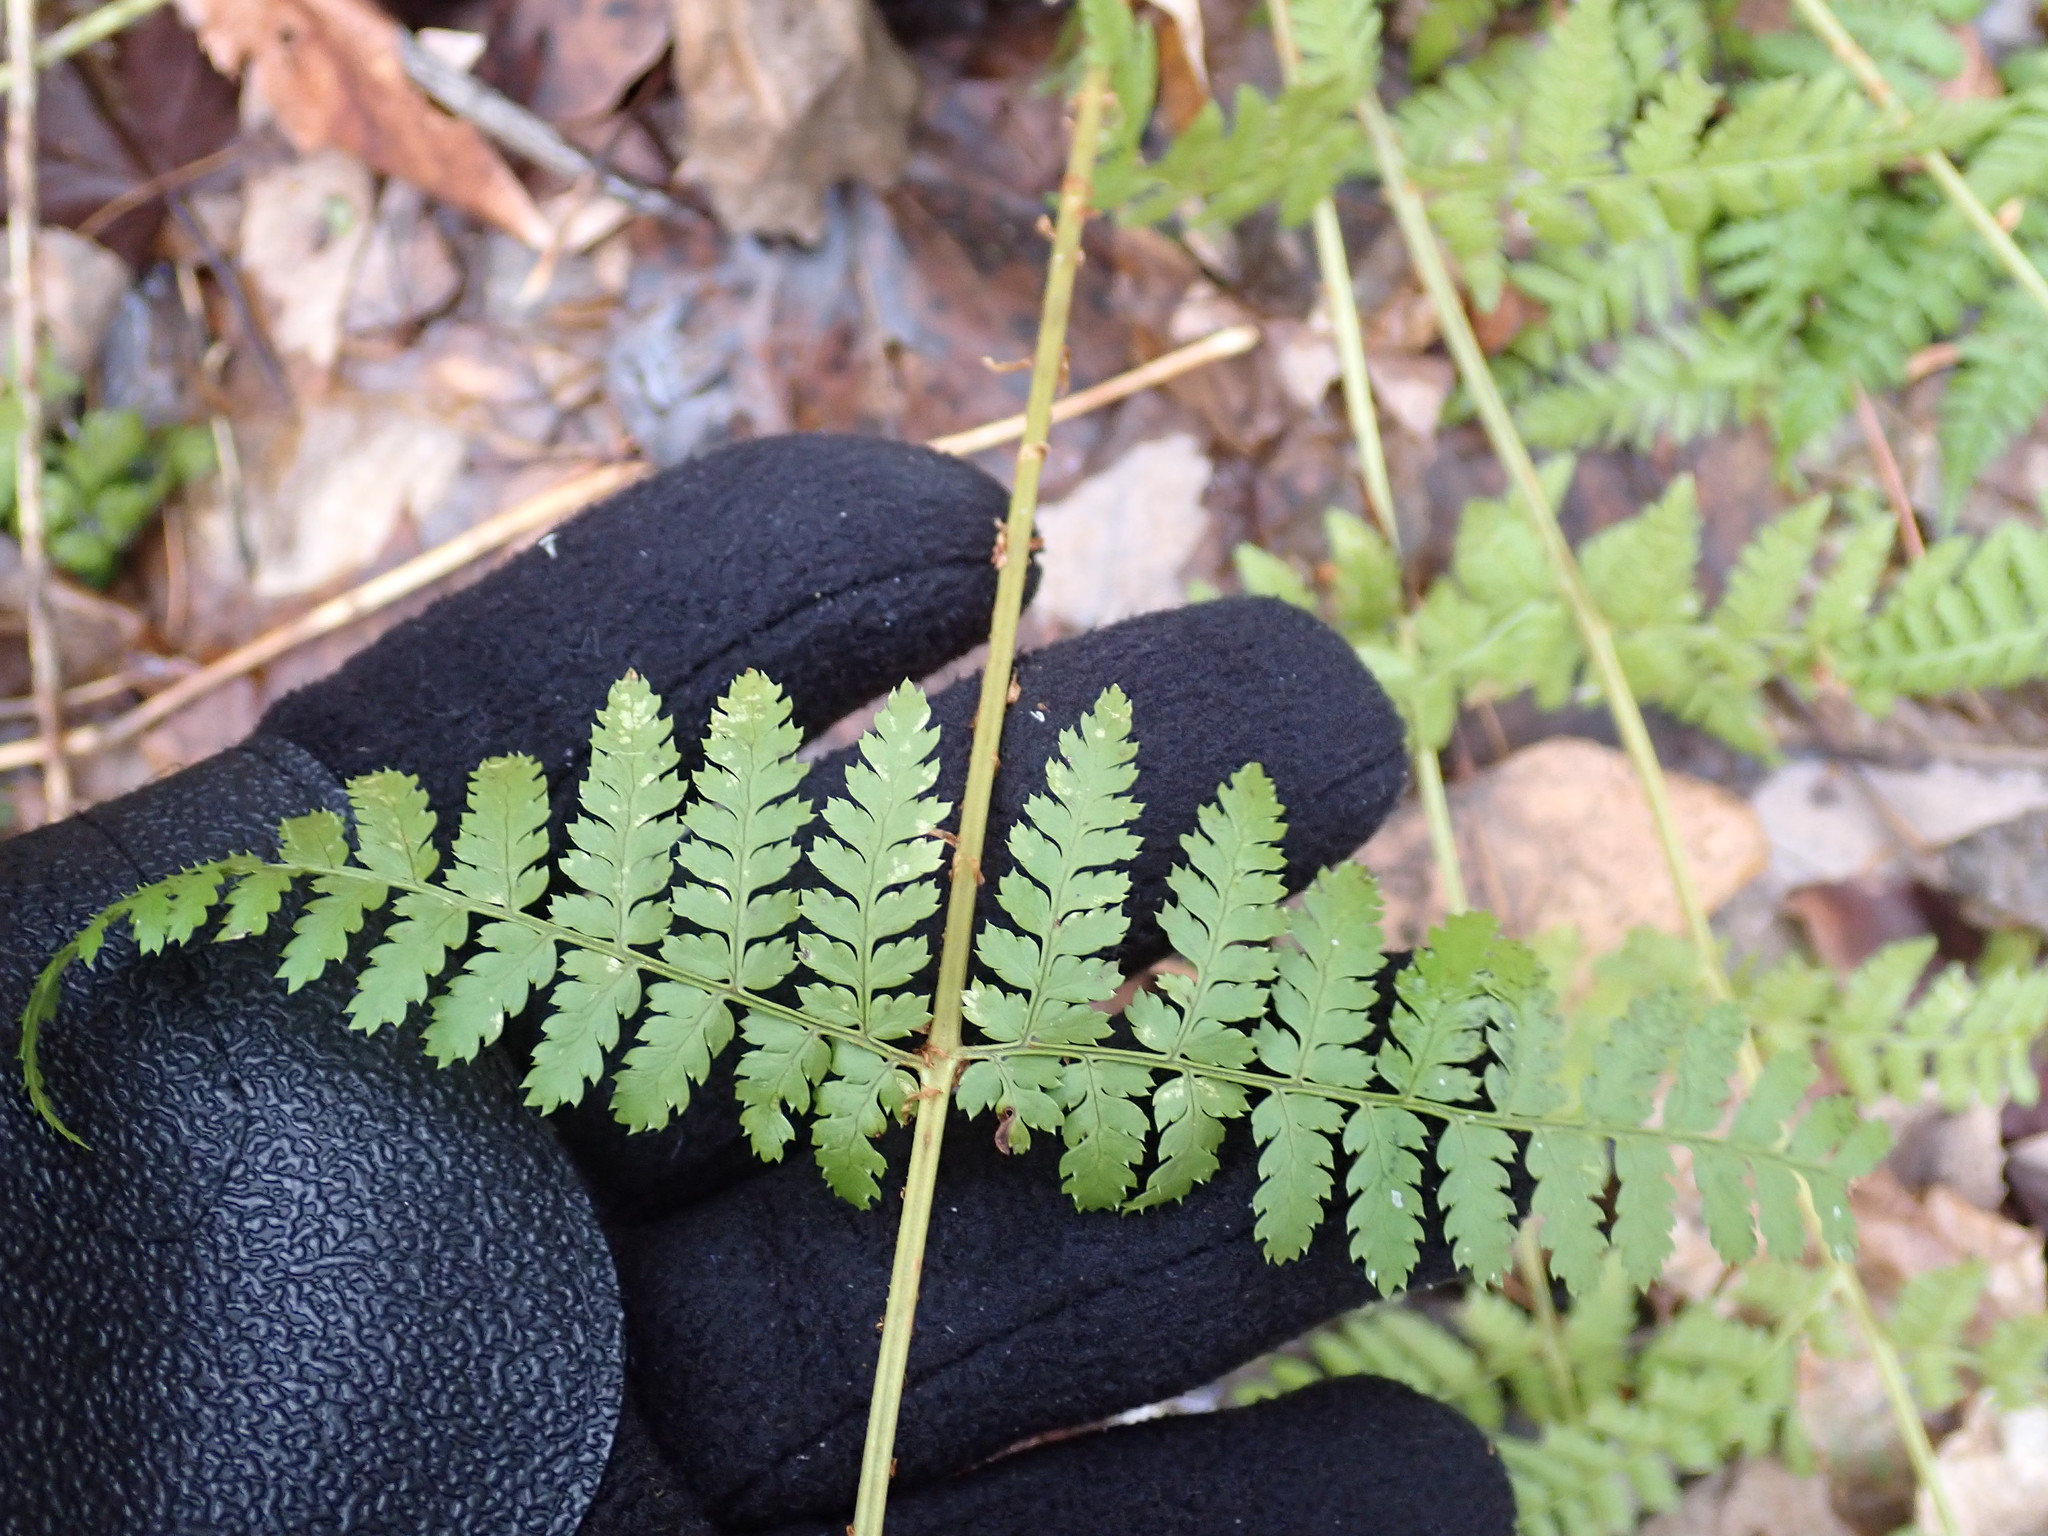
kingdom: Plantae
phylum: Tracheophyta
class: Polypodiopsida
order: Polypodiales
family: Dryopteridaceae
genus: Dryopteris
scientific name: Dryopteris
